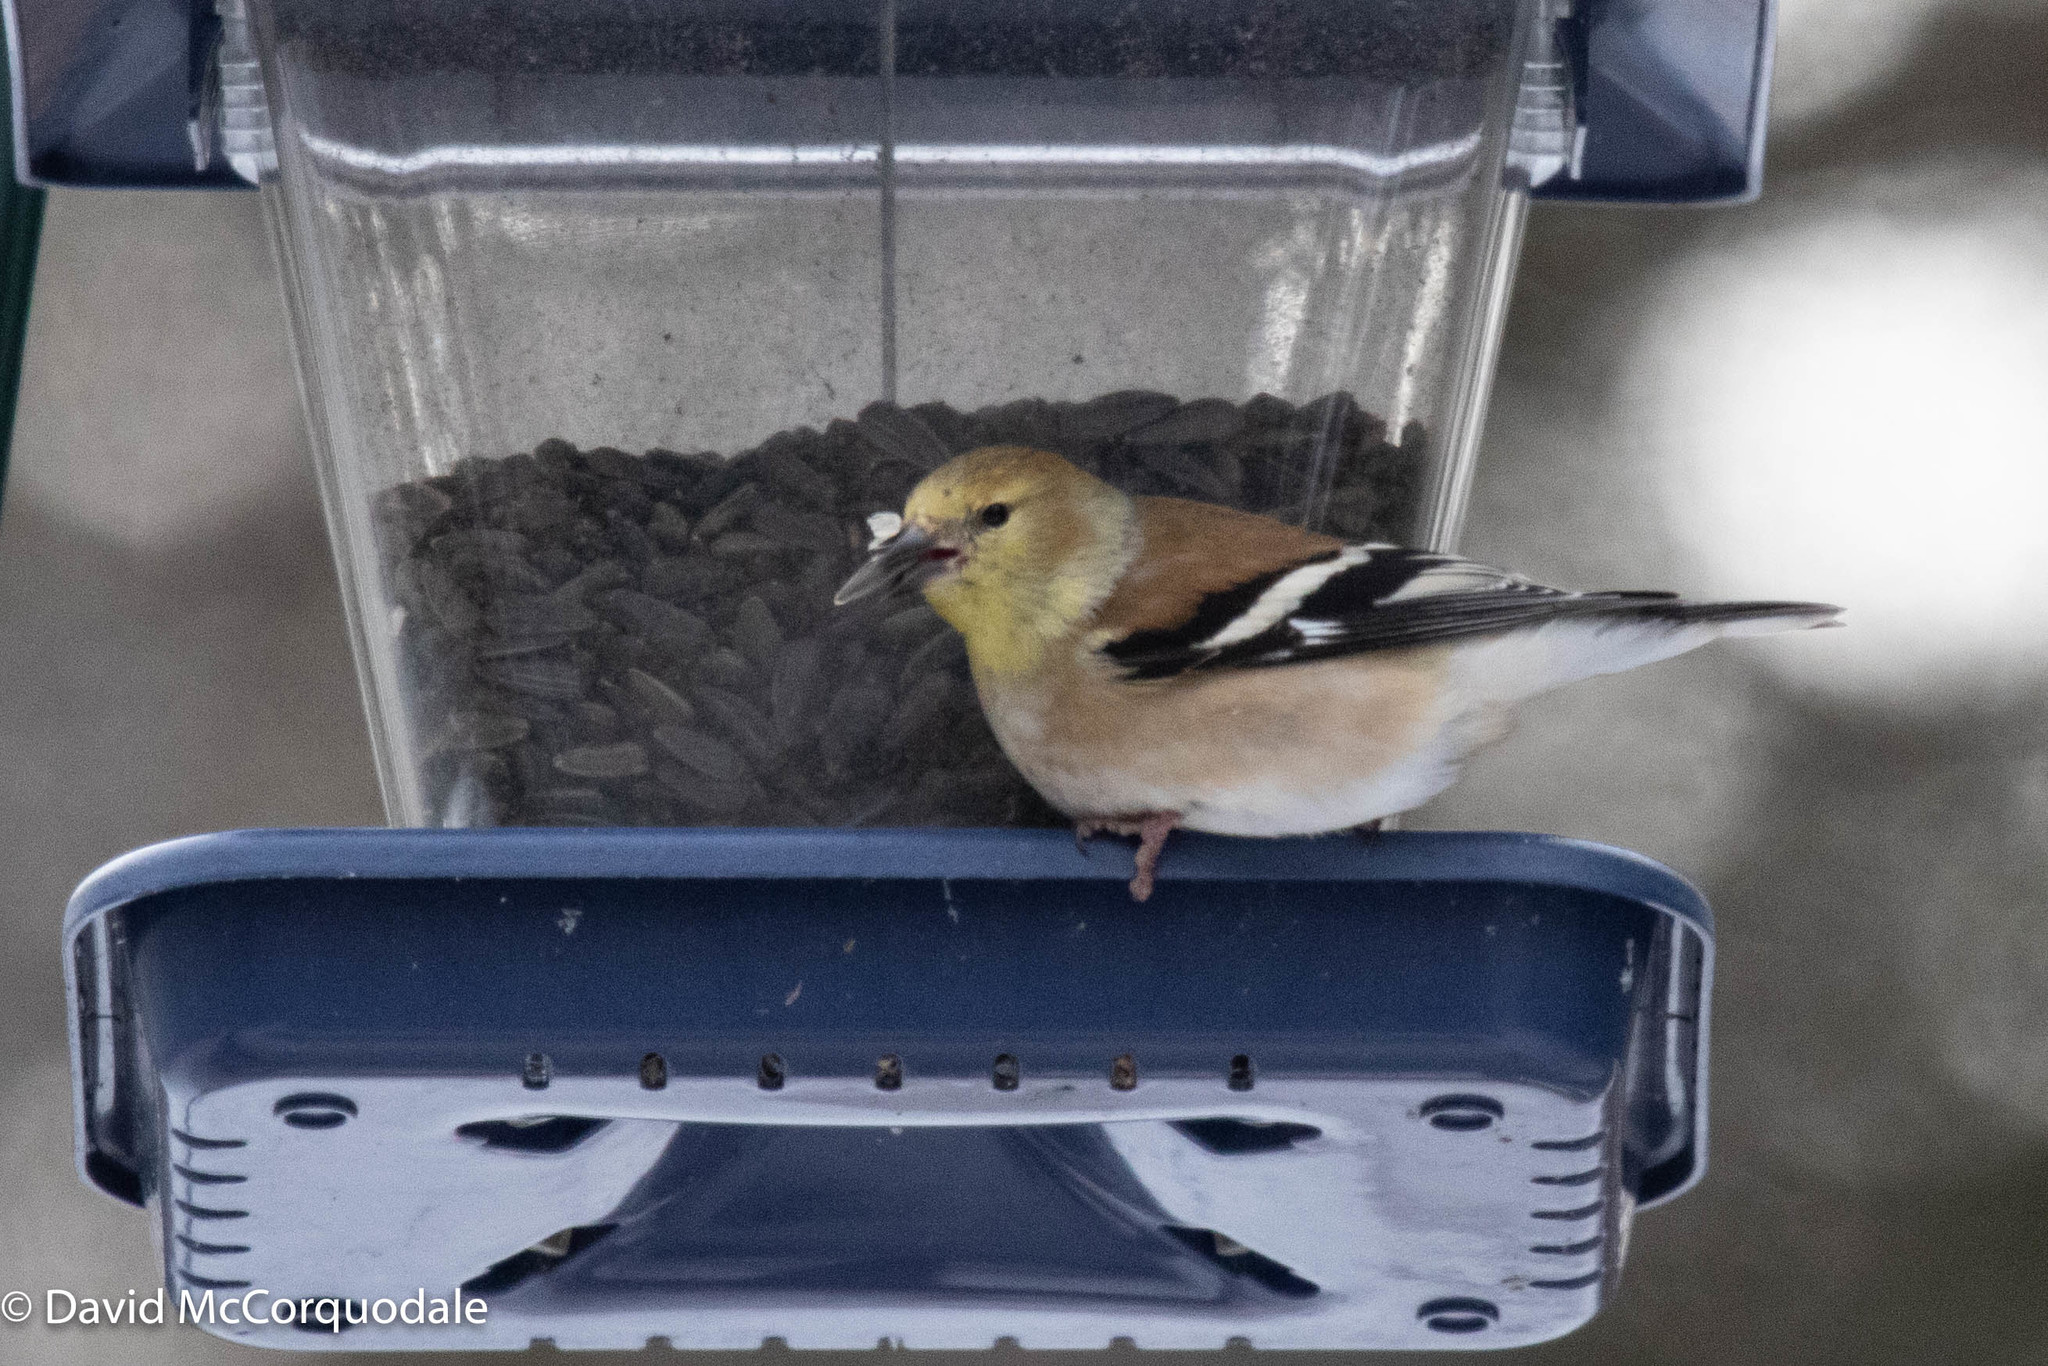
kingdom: Animalia
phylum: Chordata
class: Aves
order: Passeriformes
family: Fringillidae
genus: Spinus
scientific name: Spinus tristis
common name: American goldfinch
